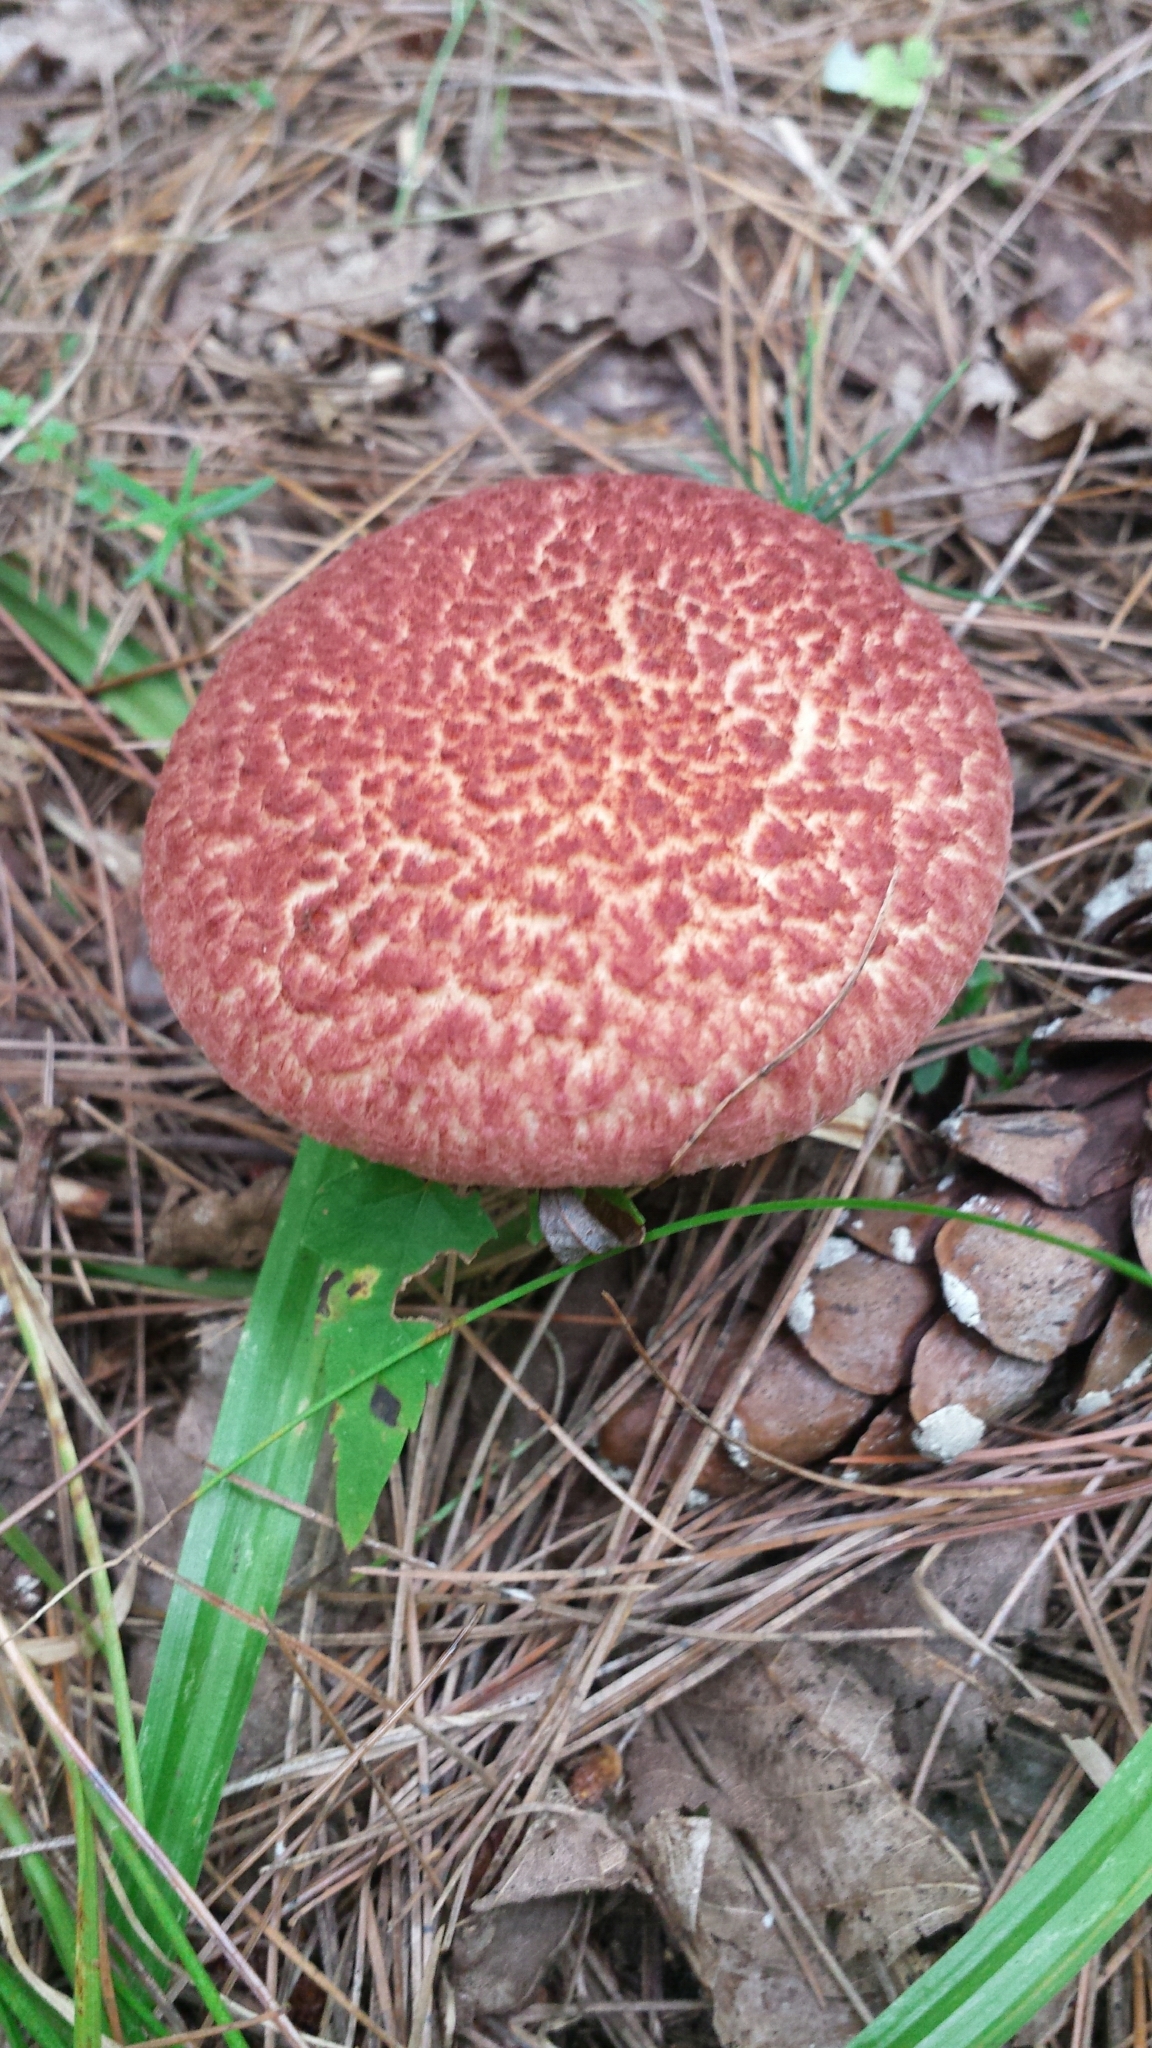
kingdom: Fungi
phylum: Basidiomycota
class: Agaricomycetes
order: Boletales
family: Suillaceae
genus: Suillus
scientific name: Suillus spraguei
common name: Painted suillus
